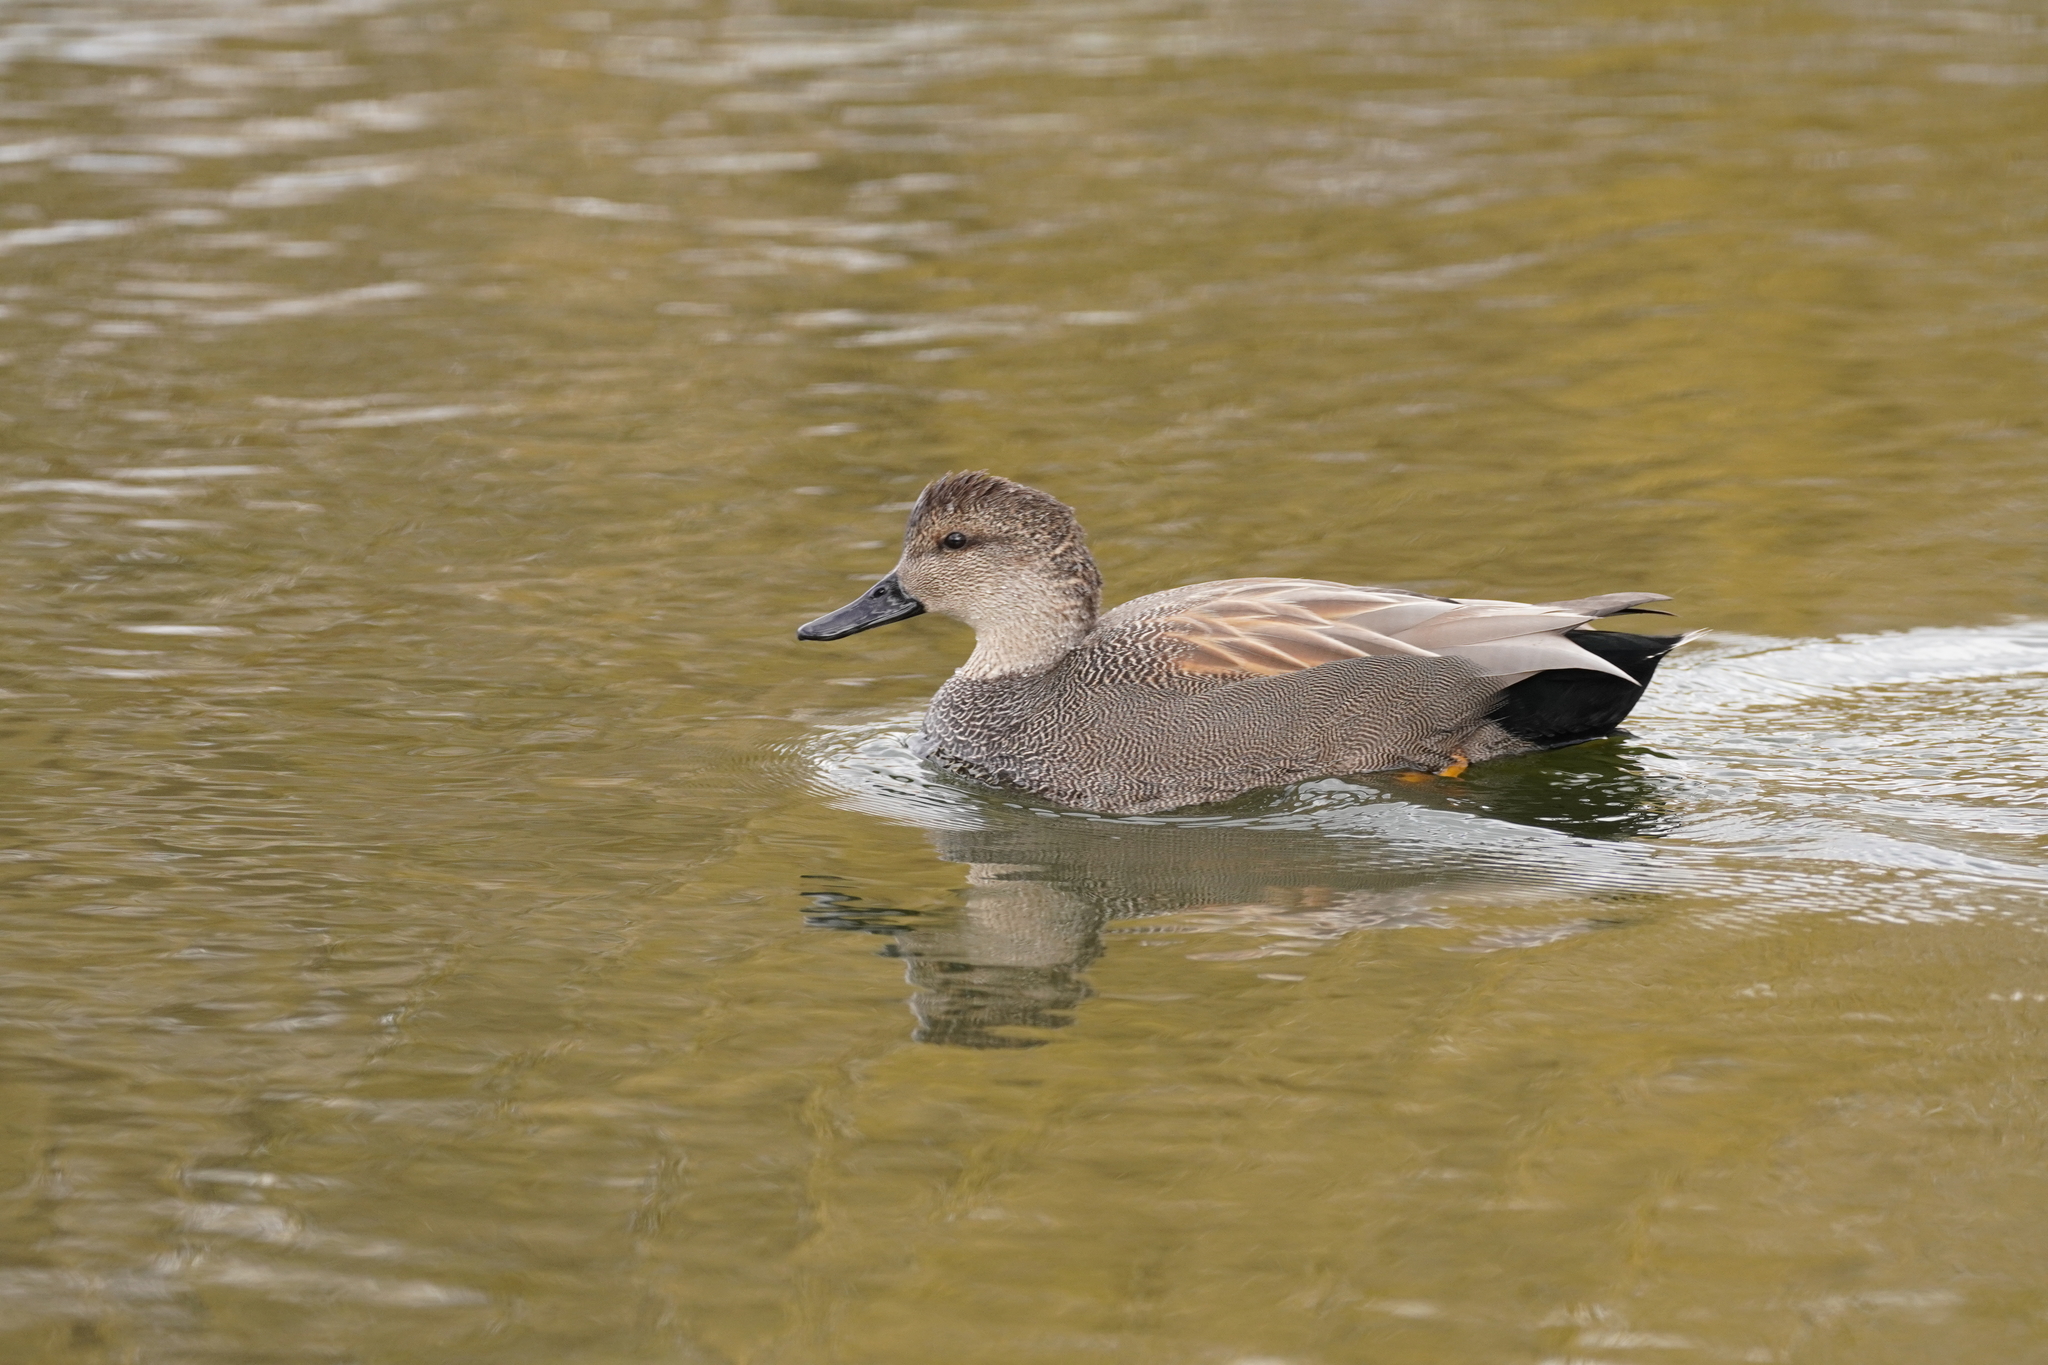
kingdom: Animalia
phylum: Chordata
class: Aves
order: Anseriformes
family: Anatidae
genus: Mareca
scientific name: Mareca strepera
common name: Gadwall
